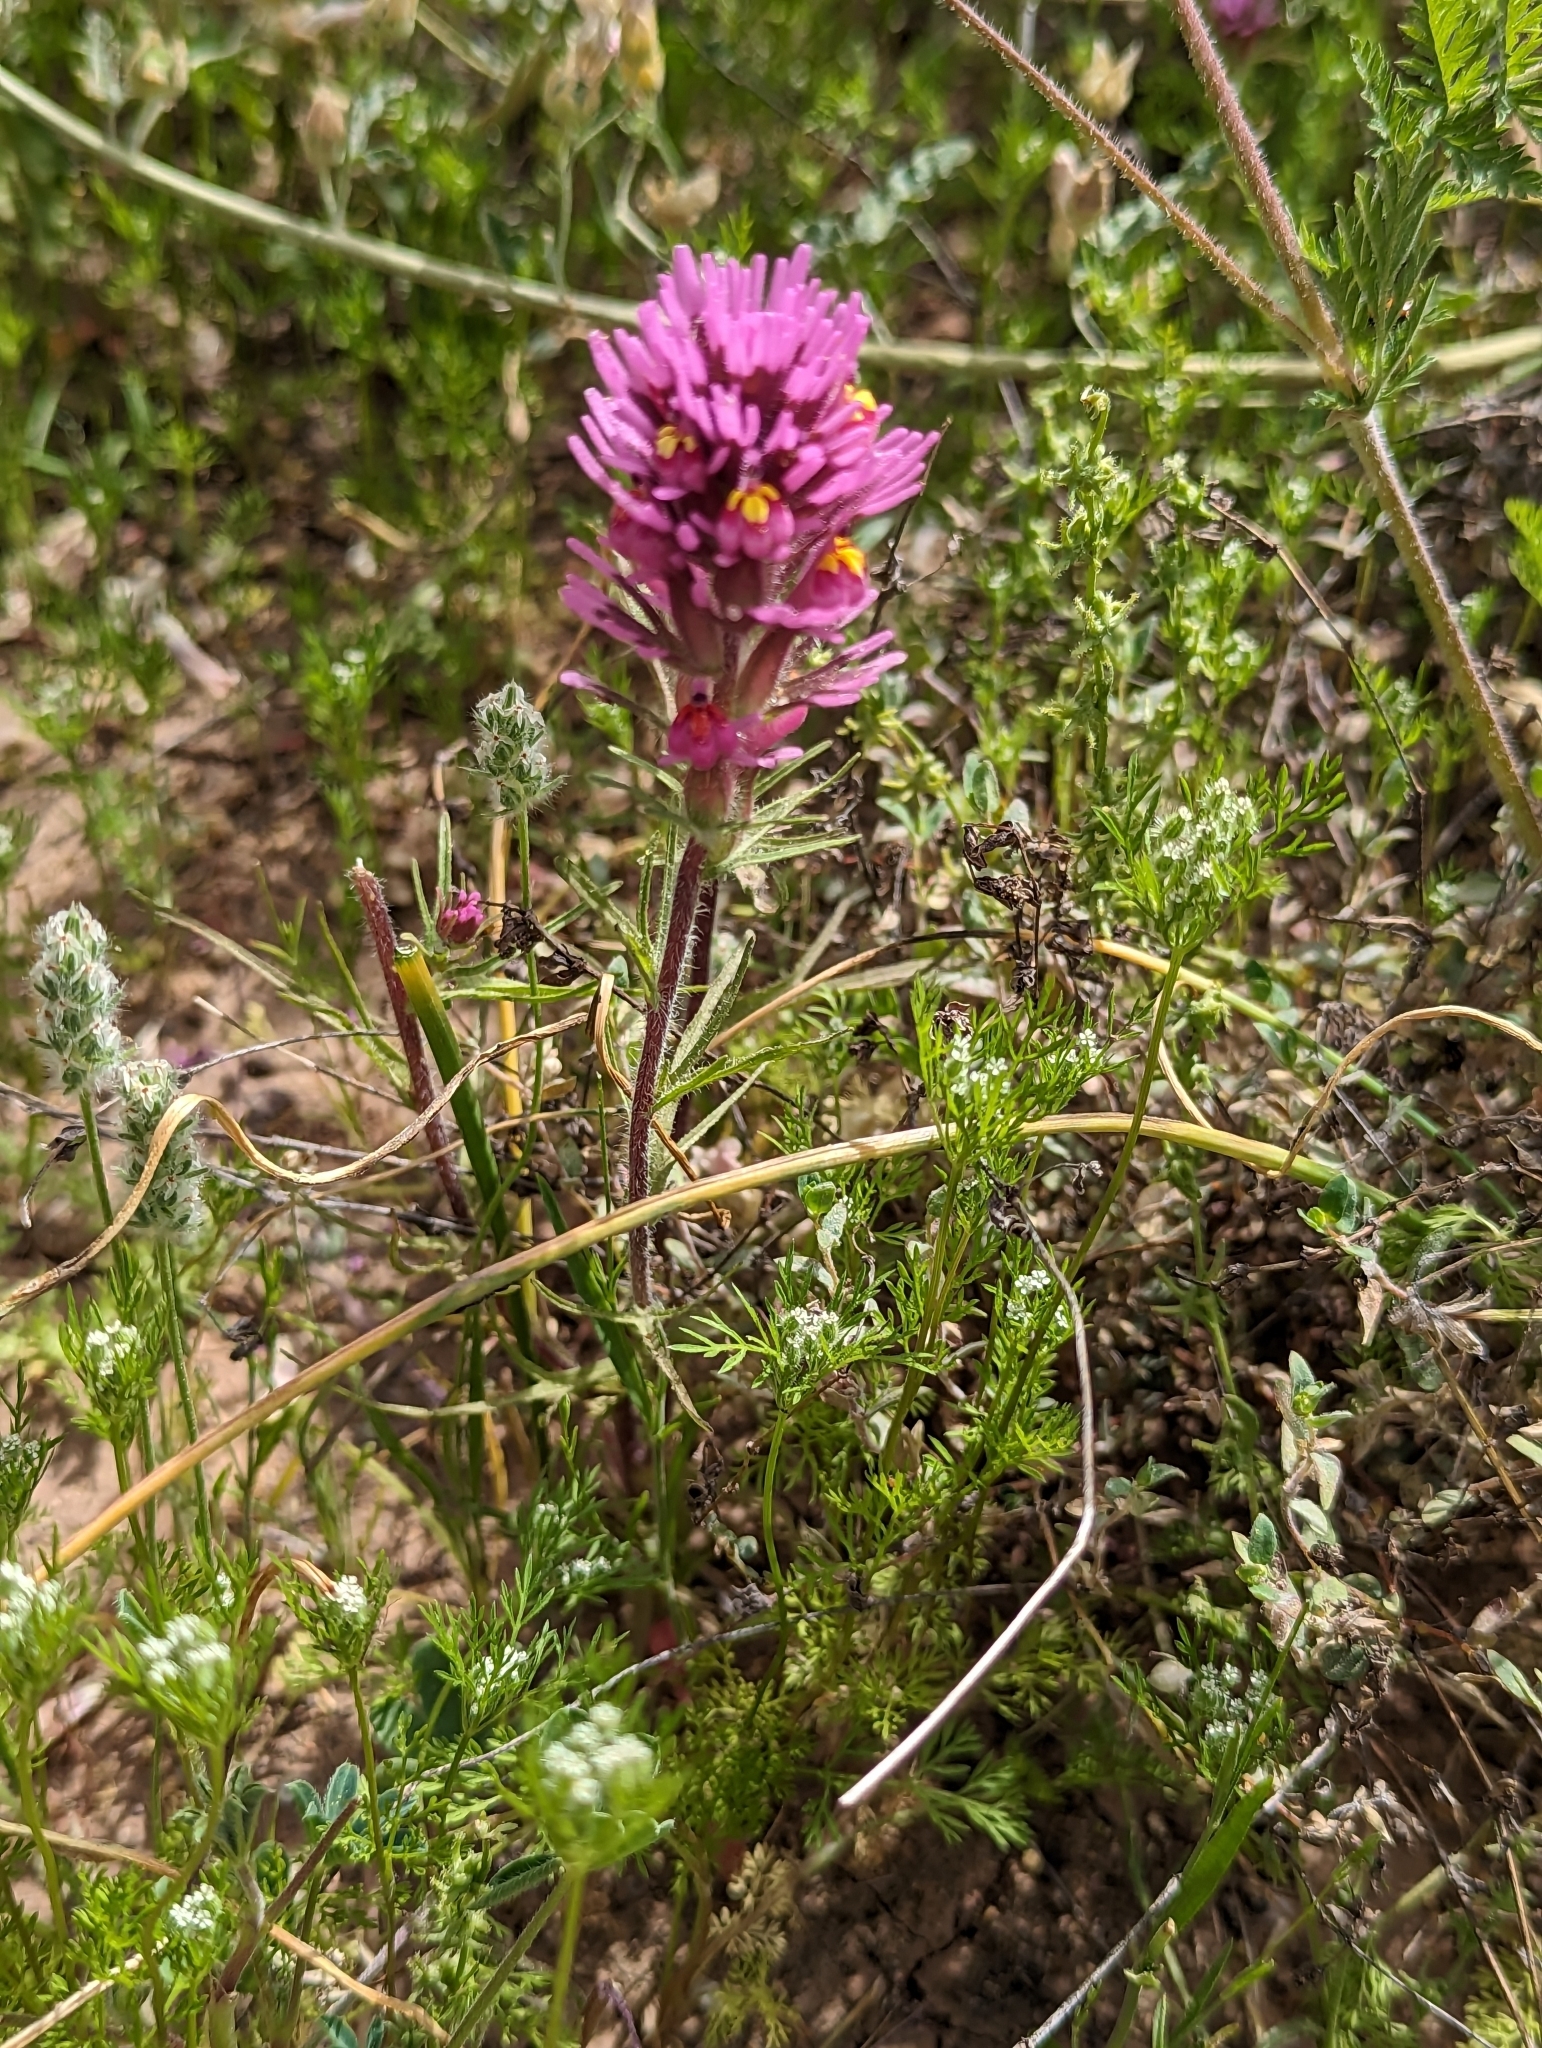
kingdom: Plantae
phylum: Tracheophyta
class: Magnoliopsida
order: Lamiales
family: Orobanchaceae
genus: Castilleja
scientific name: Castilleja exserta
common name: Purple owl-clover
